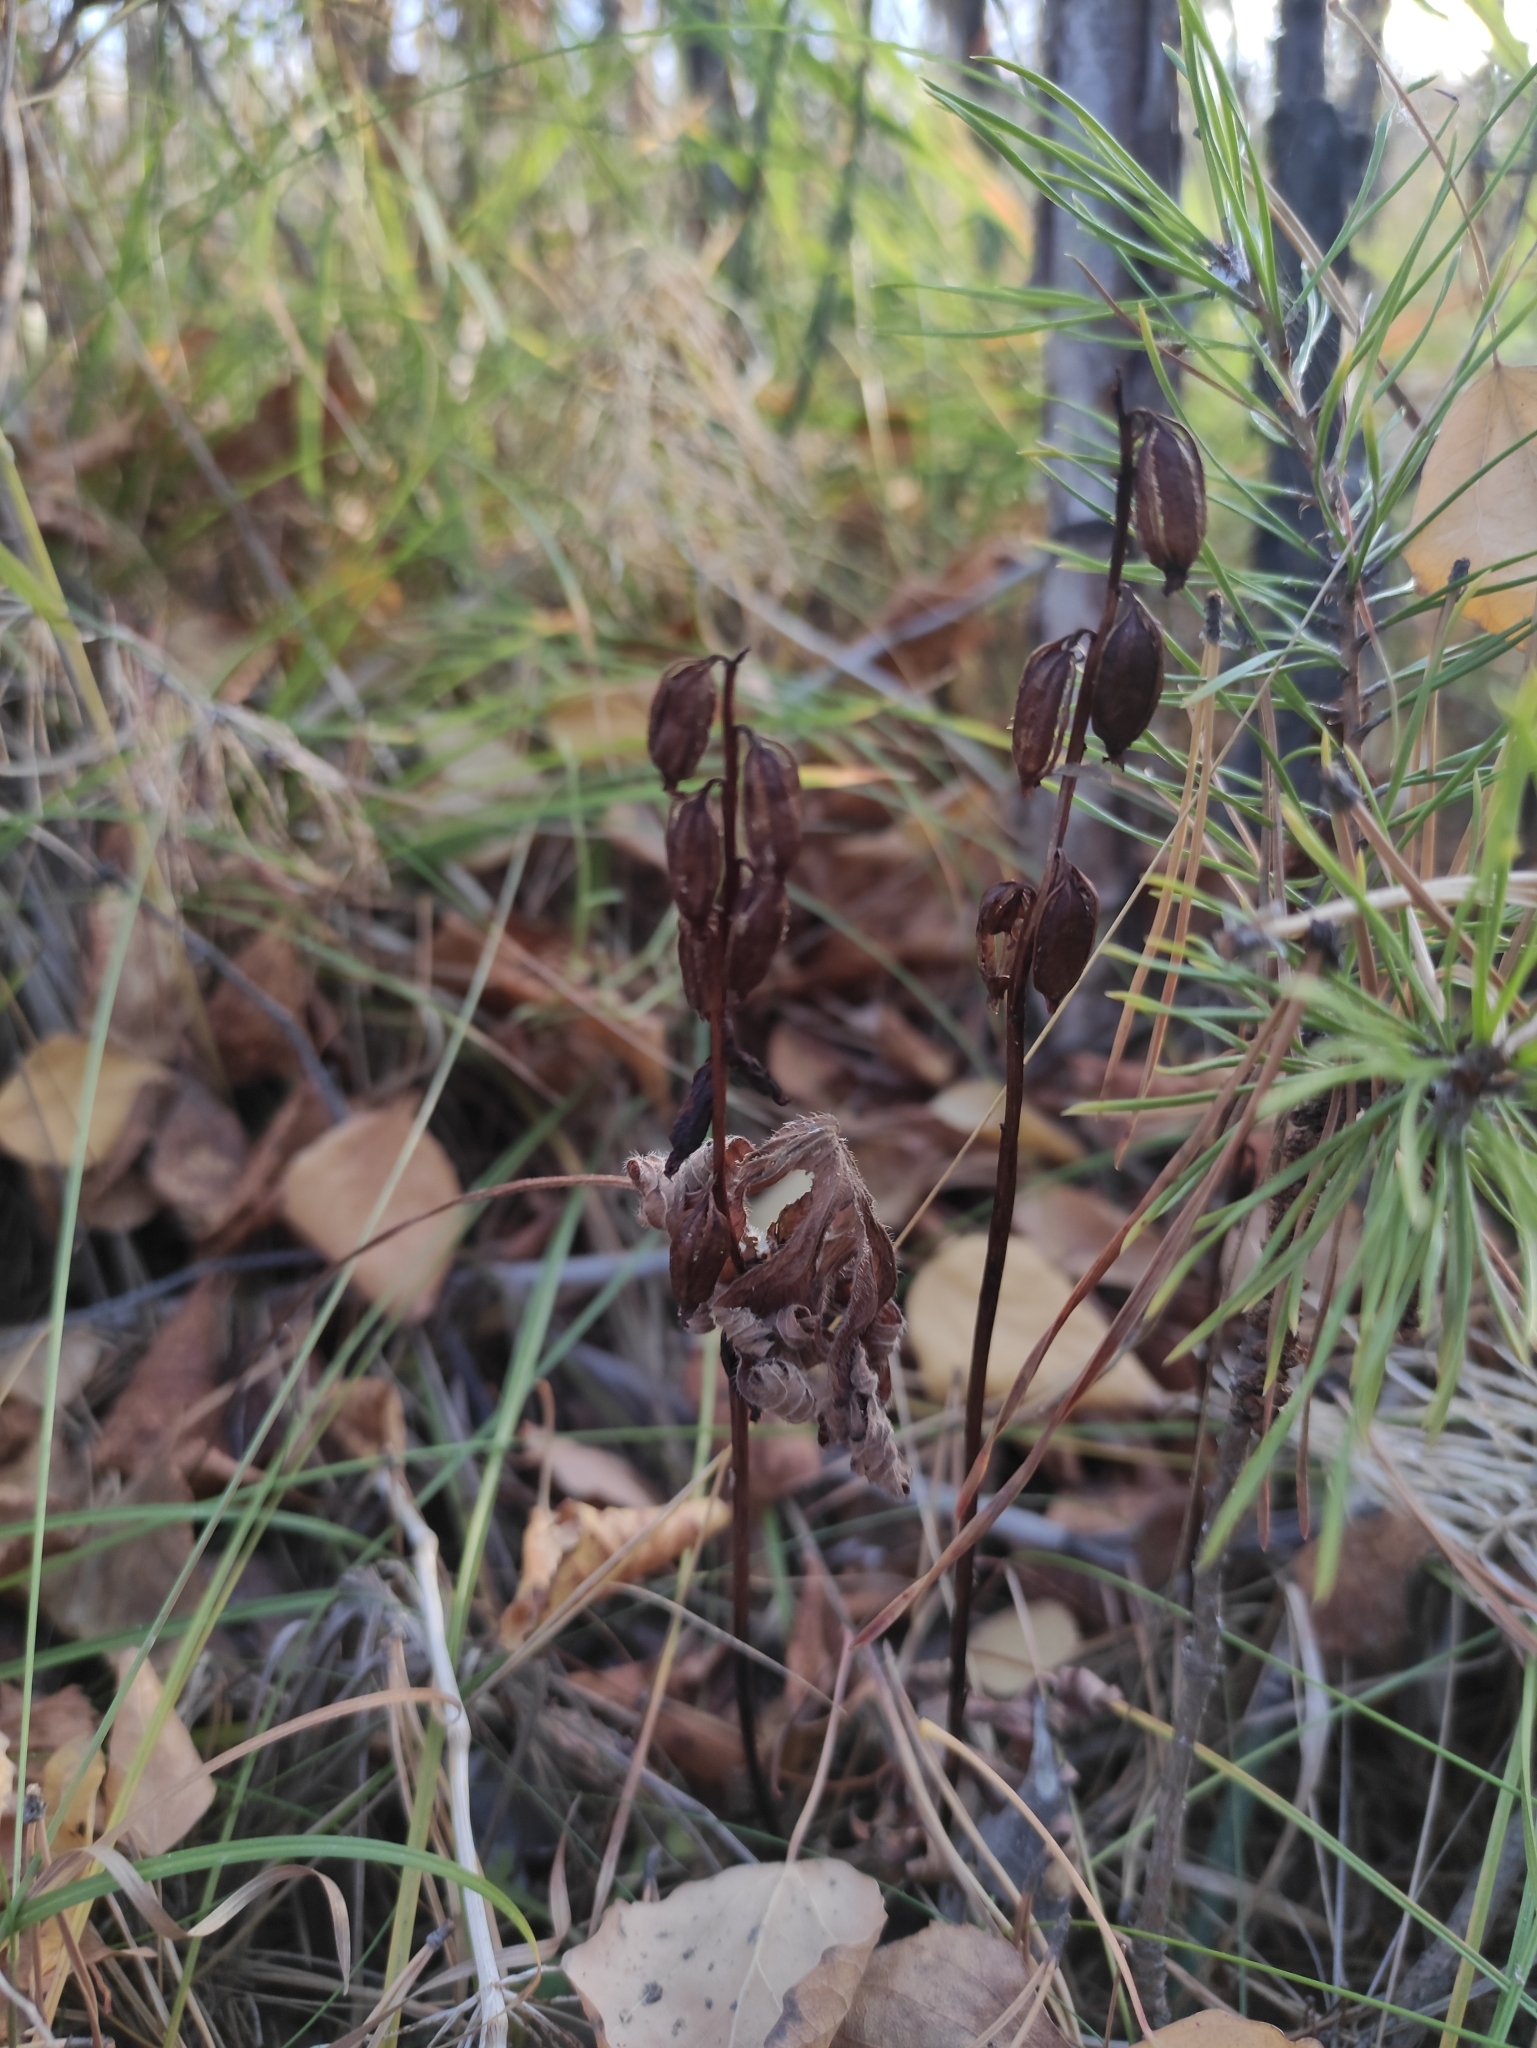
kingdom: Plantae
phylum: Tracheophyta
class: Liliopsida
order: Asparagales
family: Orchidaceae
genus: Corallorhiza
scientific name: Corallorhiza trifida
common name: Yellow coralroot
